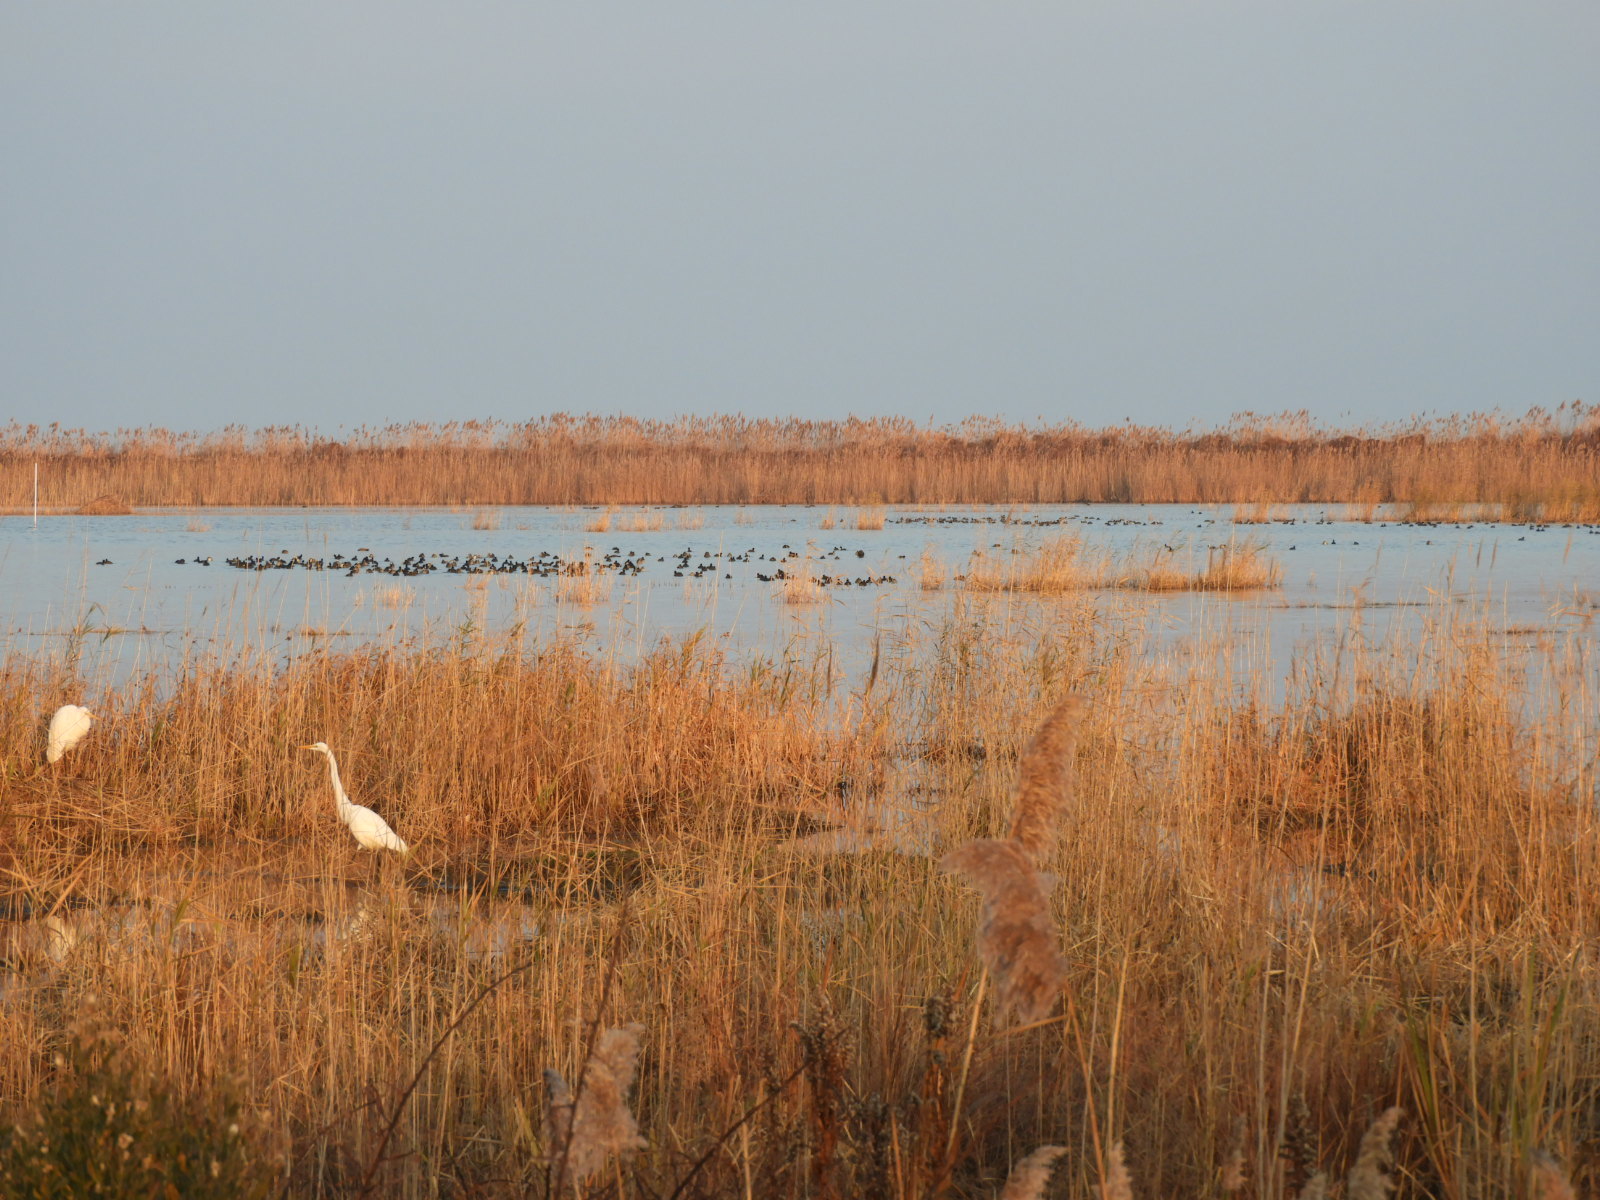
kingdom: Animalia
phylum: Chordata
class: Aves
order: Pelecaniformes
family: Ardeidae
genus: Ardea
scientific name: Ardea alba
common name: Great egret
